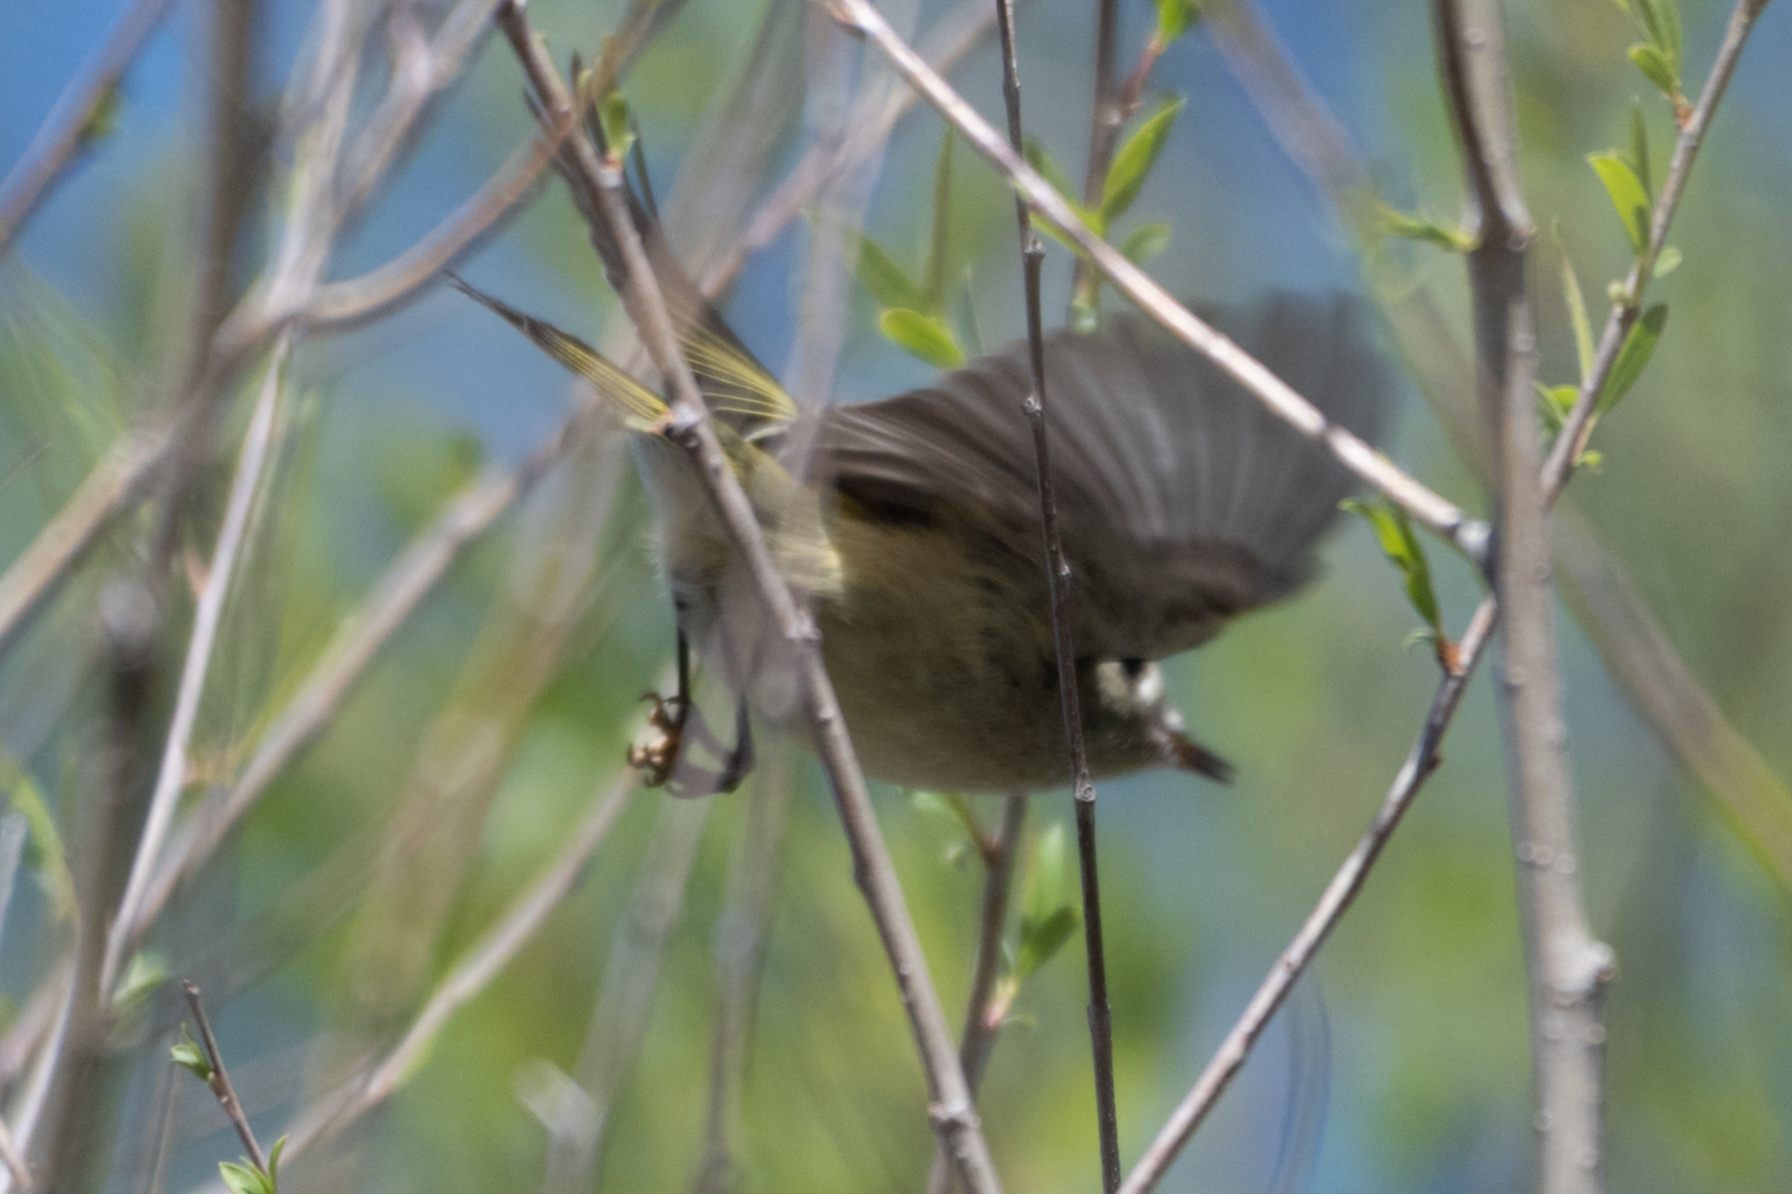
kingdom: Animalia
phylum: Chordata
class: Aves
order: Passeriformes
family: Regulidae
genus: Regulus
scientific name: Regulus calendula
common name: Ruby-crowned kinglet
